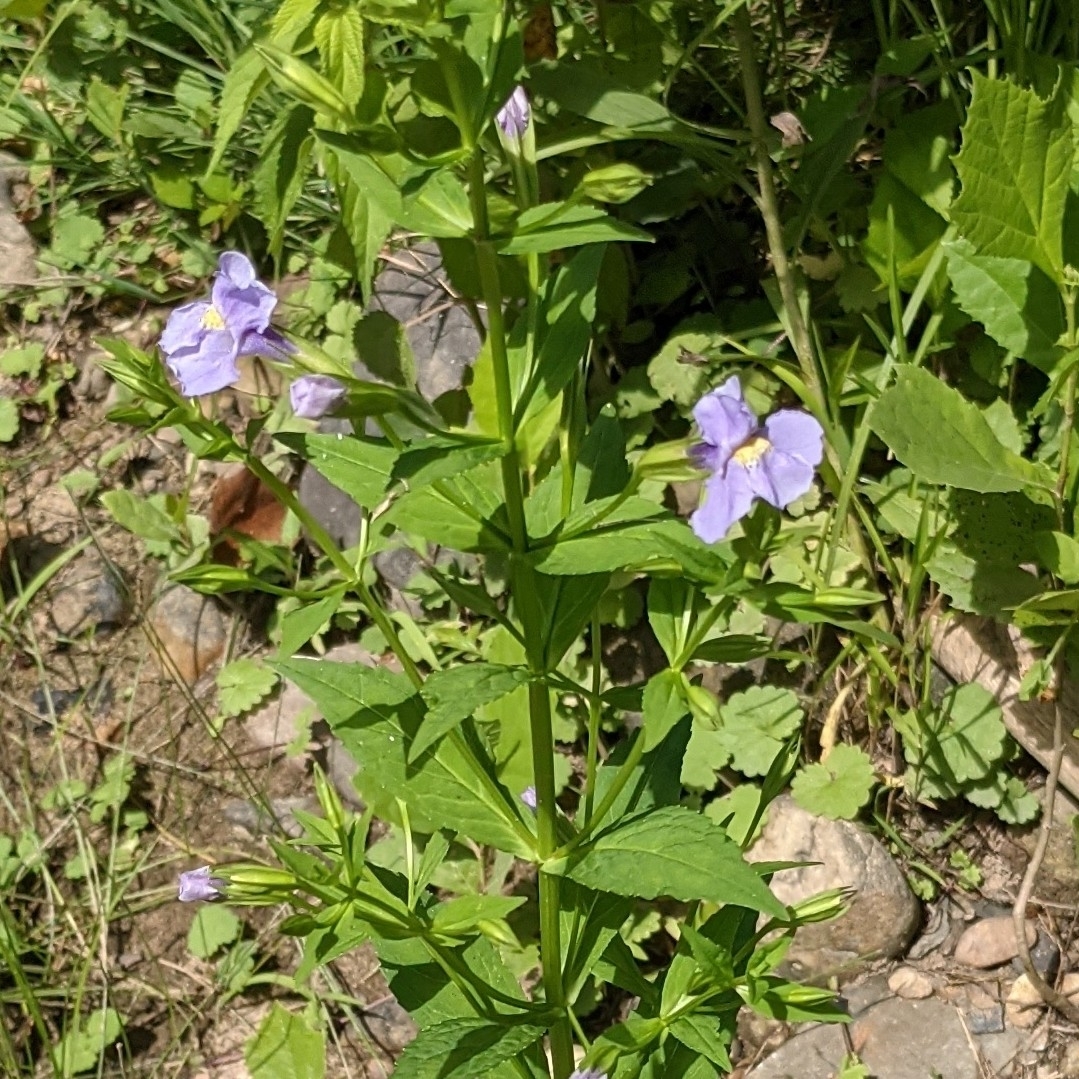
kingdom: Plantae
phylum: Tracheophyta
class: Magnoliopsida
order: Lamiales
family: Phrymaceae
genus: Mimulus
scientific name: Mimulus ringens
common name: Allegheny monkeyflower
